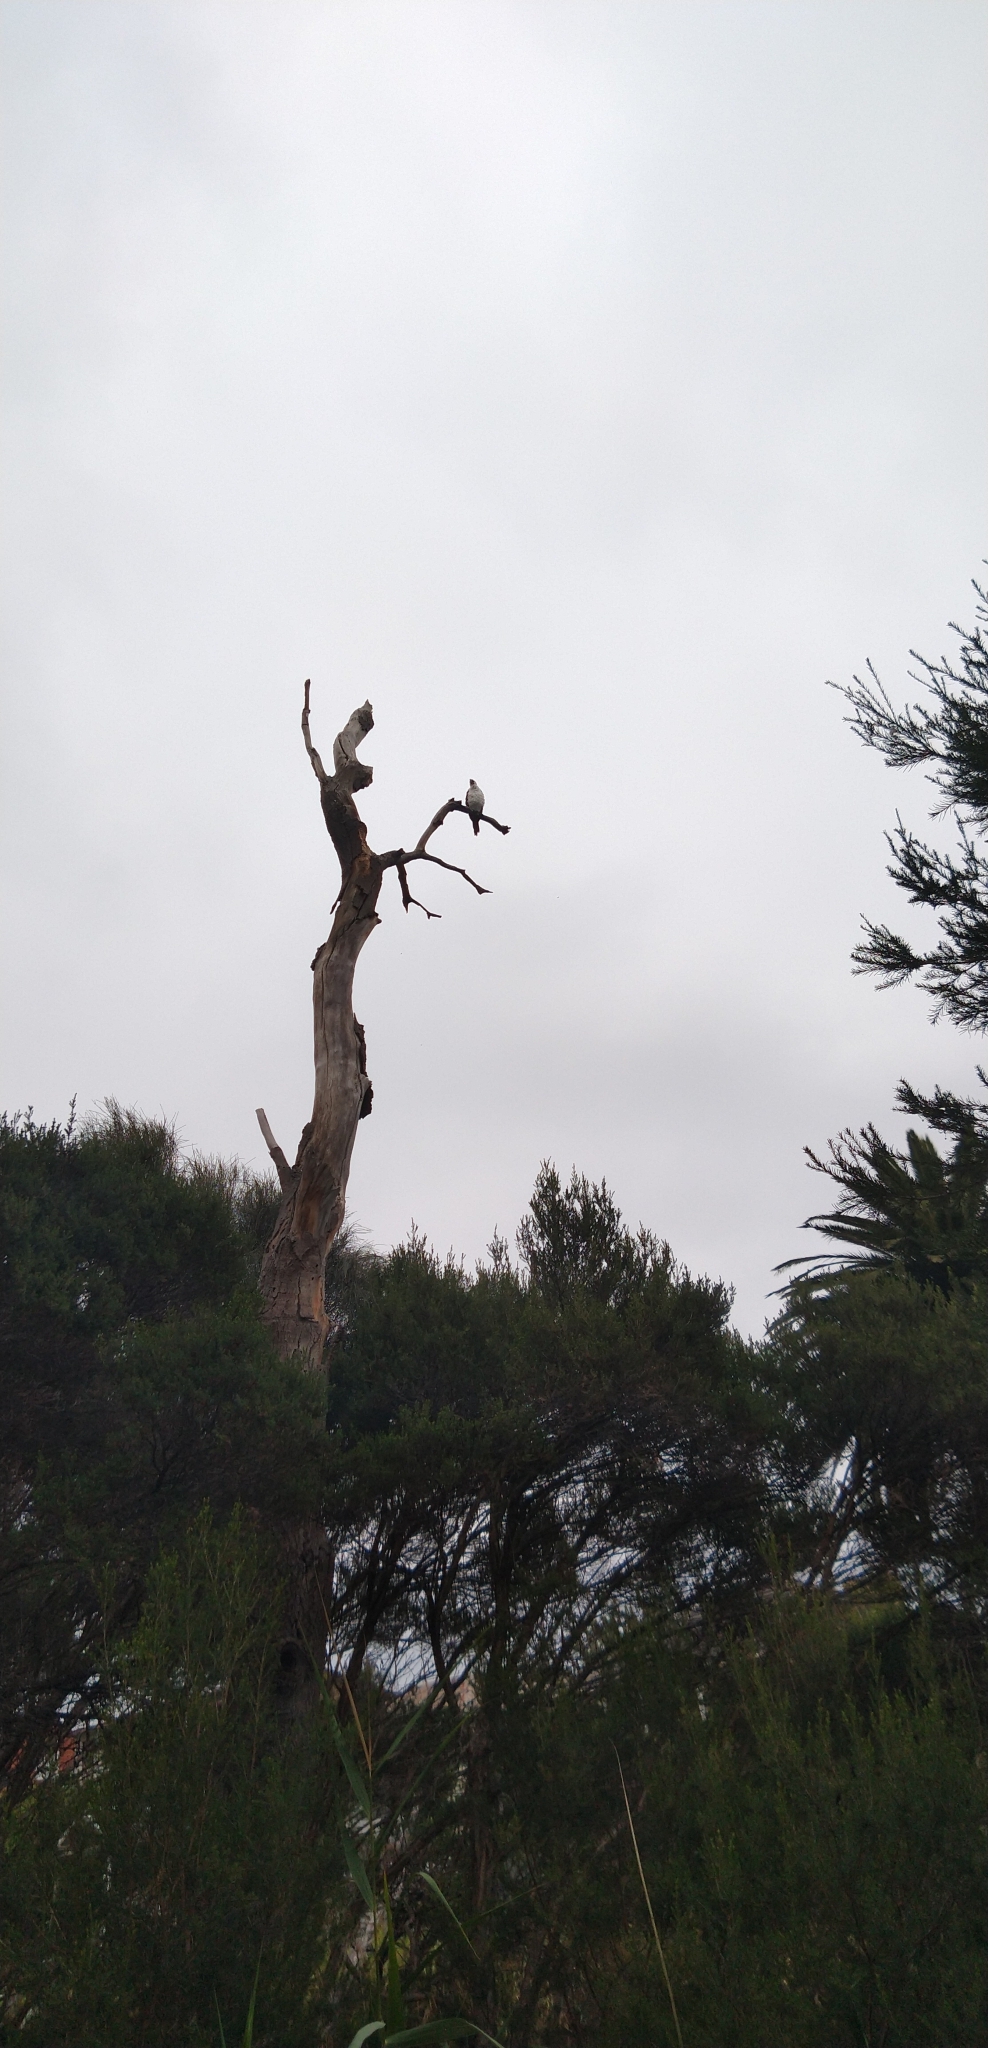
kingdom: Animalia
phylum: Chordata
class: Aves
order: Suliformes
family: Phalacrocoracidae
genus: Microcarbo
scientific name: Microcarbo melanoleucos
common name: Little pied cormorant
